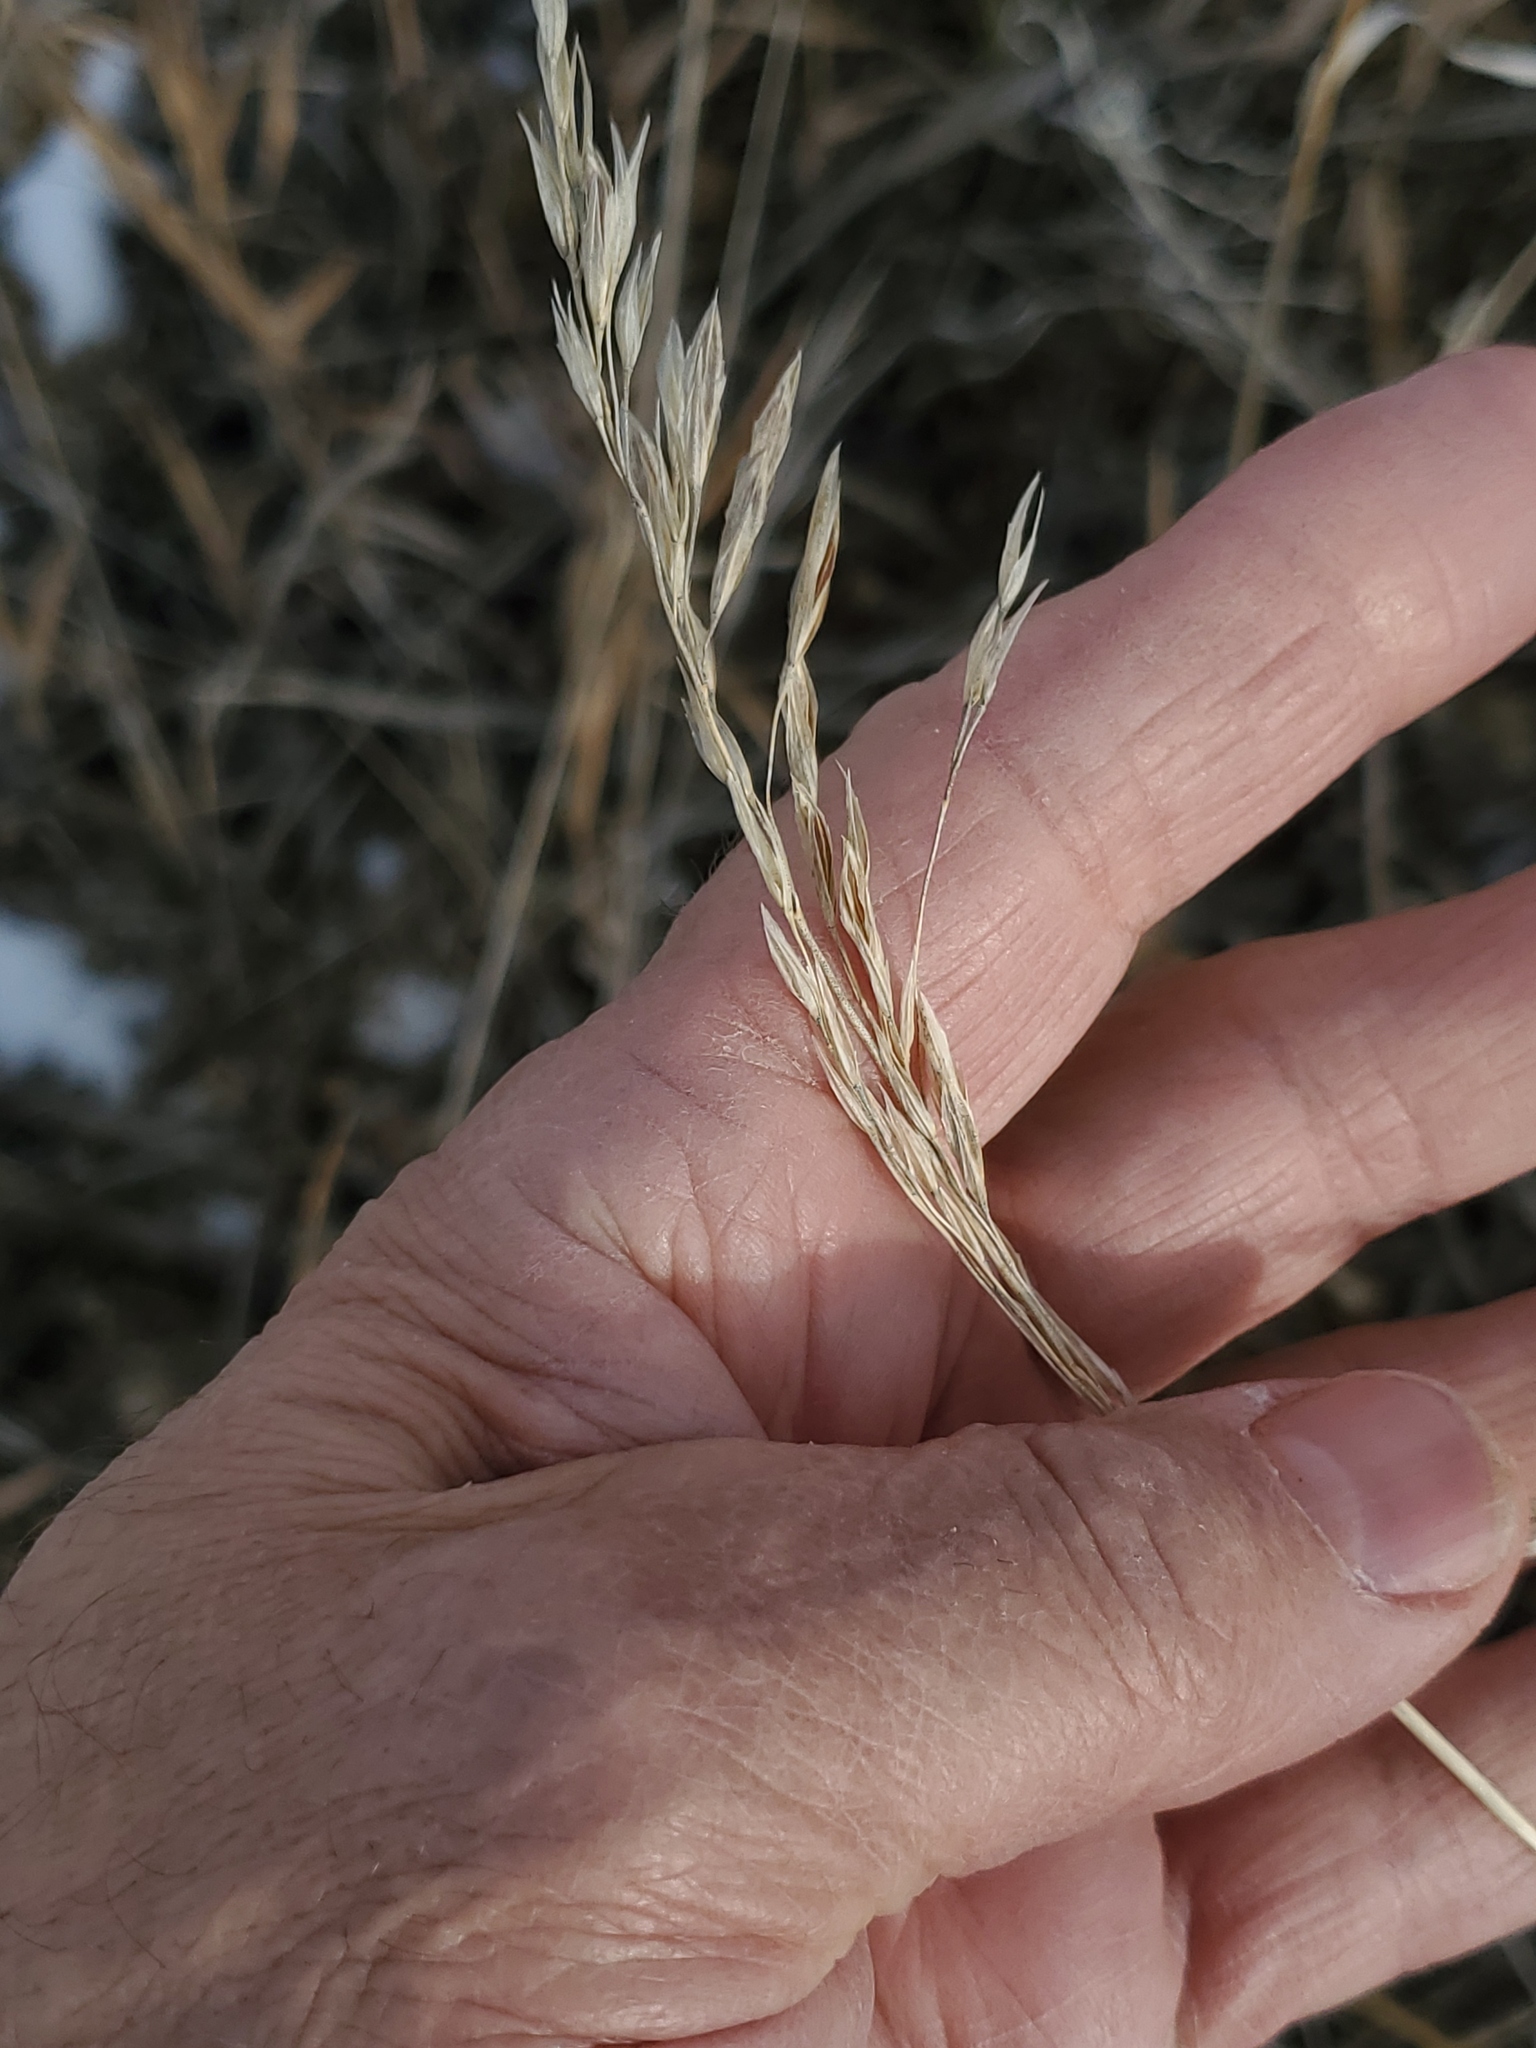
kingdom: Plantae
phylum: Tracheophyta
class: Liliopsida
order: Poales
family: Poaceae
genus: Bromus
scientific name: Bromus inermis
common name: Smooth brome
